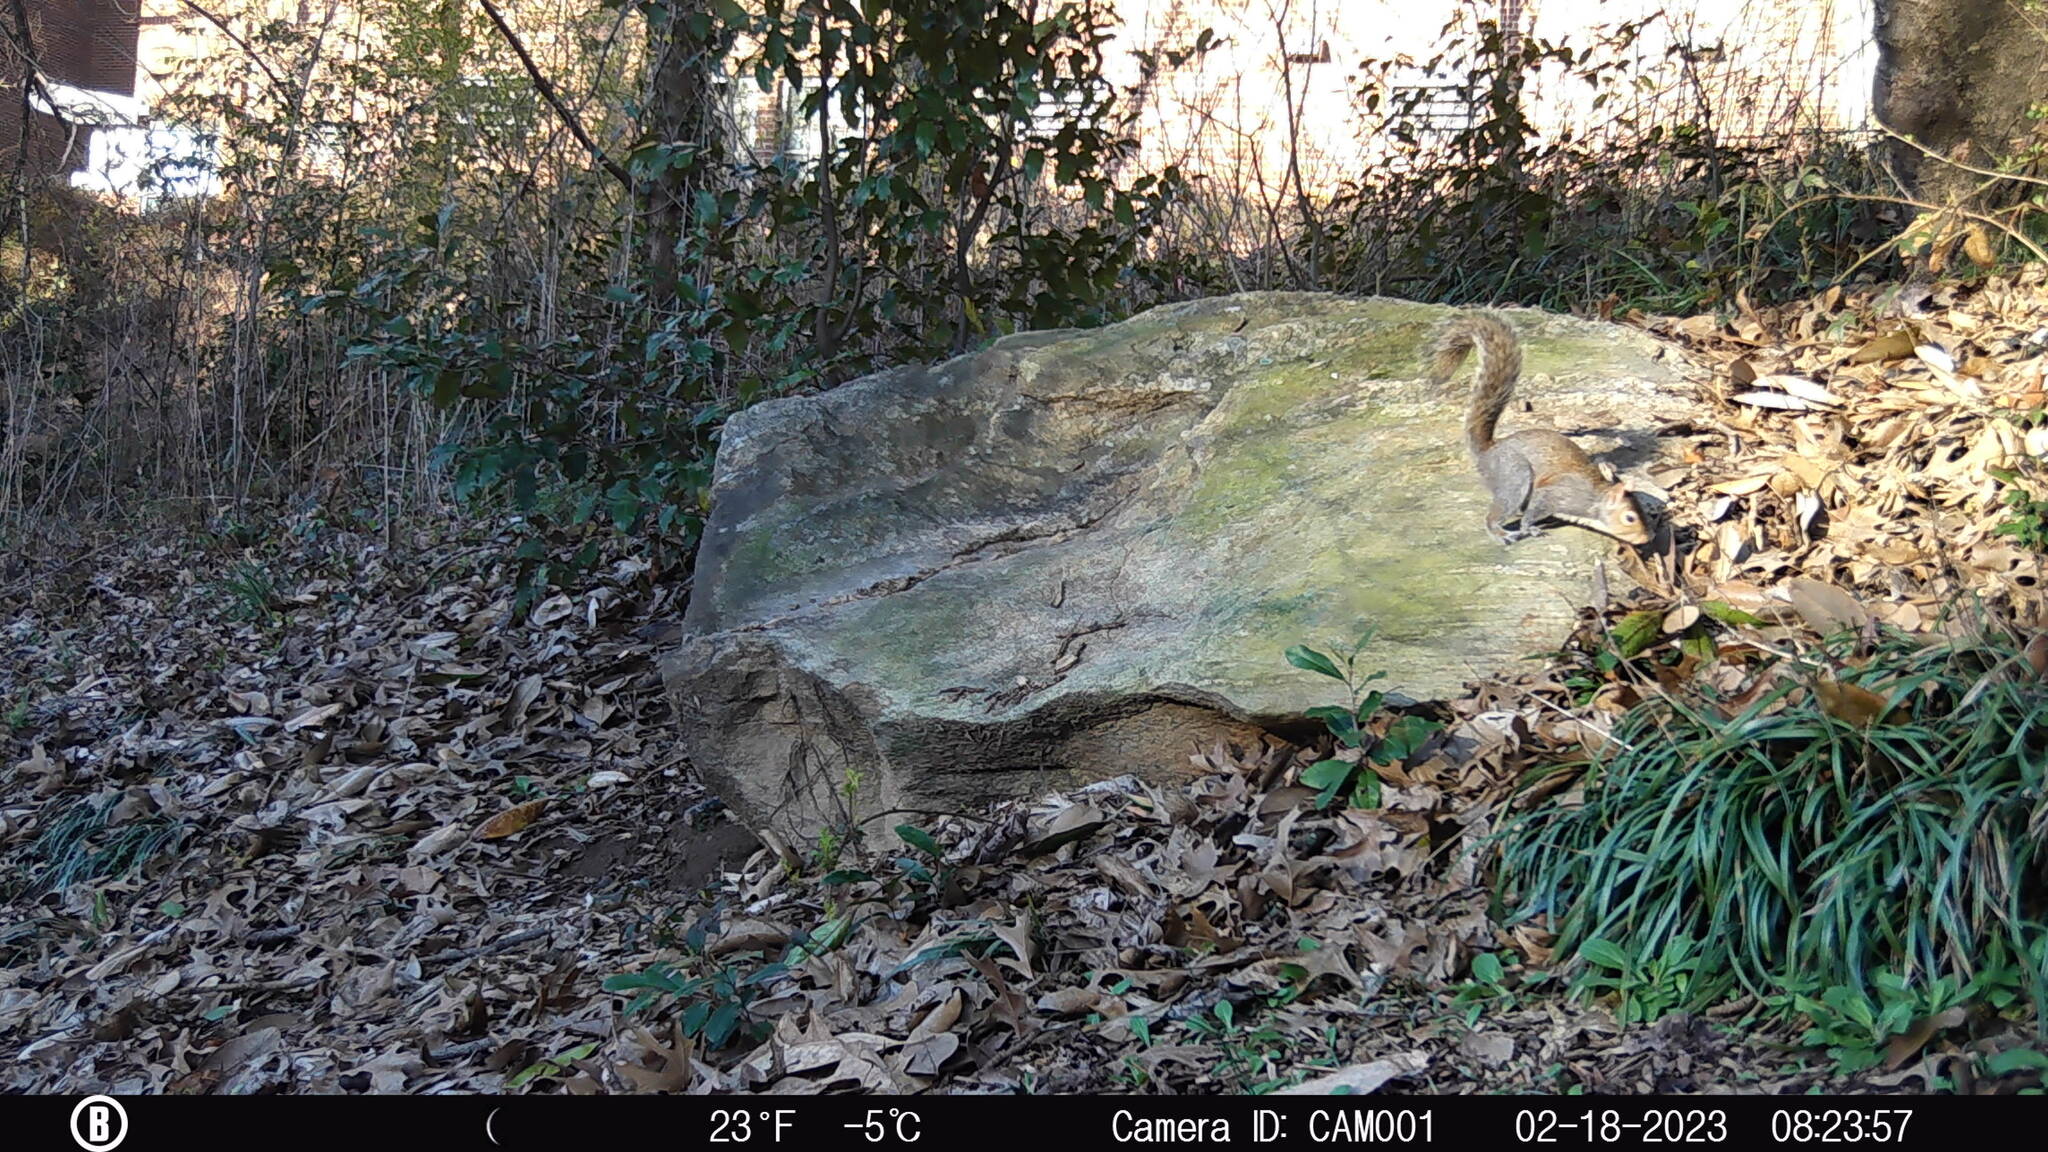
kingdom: Animalia
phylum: Chordata
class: Mammalia
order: Rodentia
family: Sciuridae
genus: Sciurus
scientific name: Sciurus carolinensis
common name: Eastern gray squirrel
